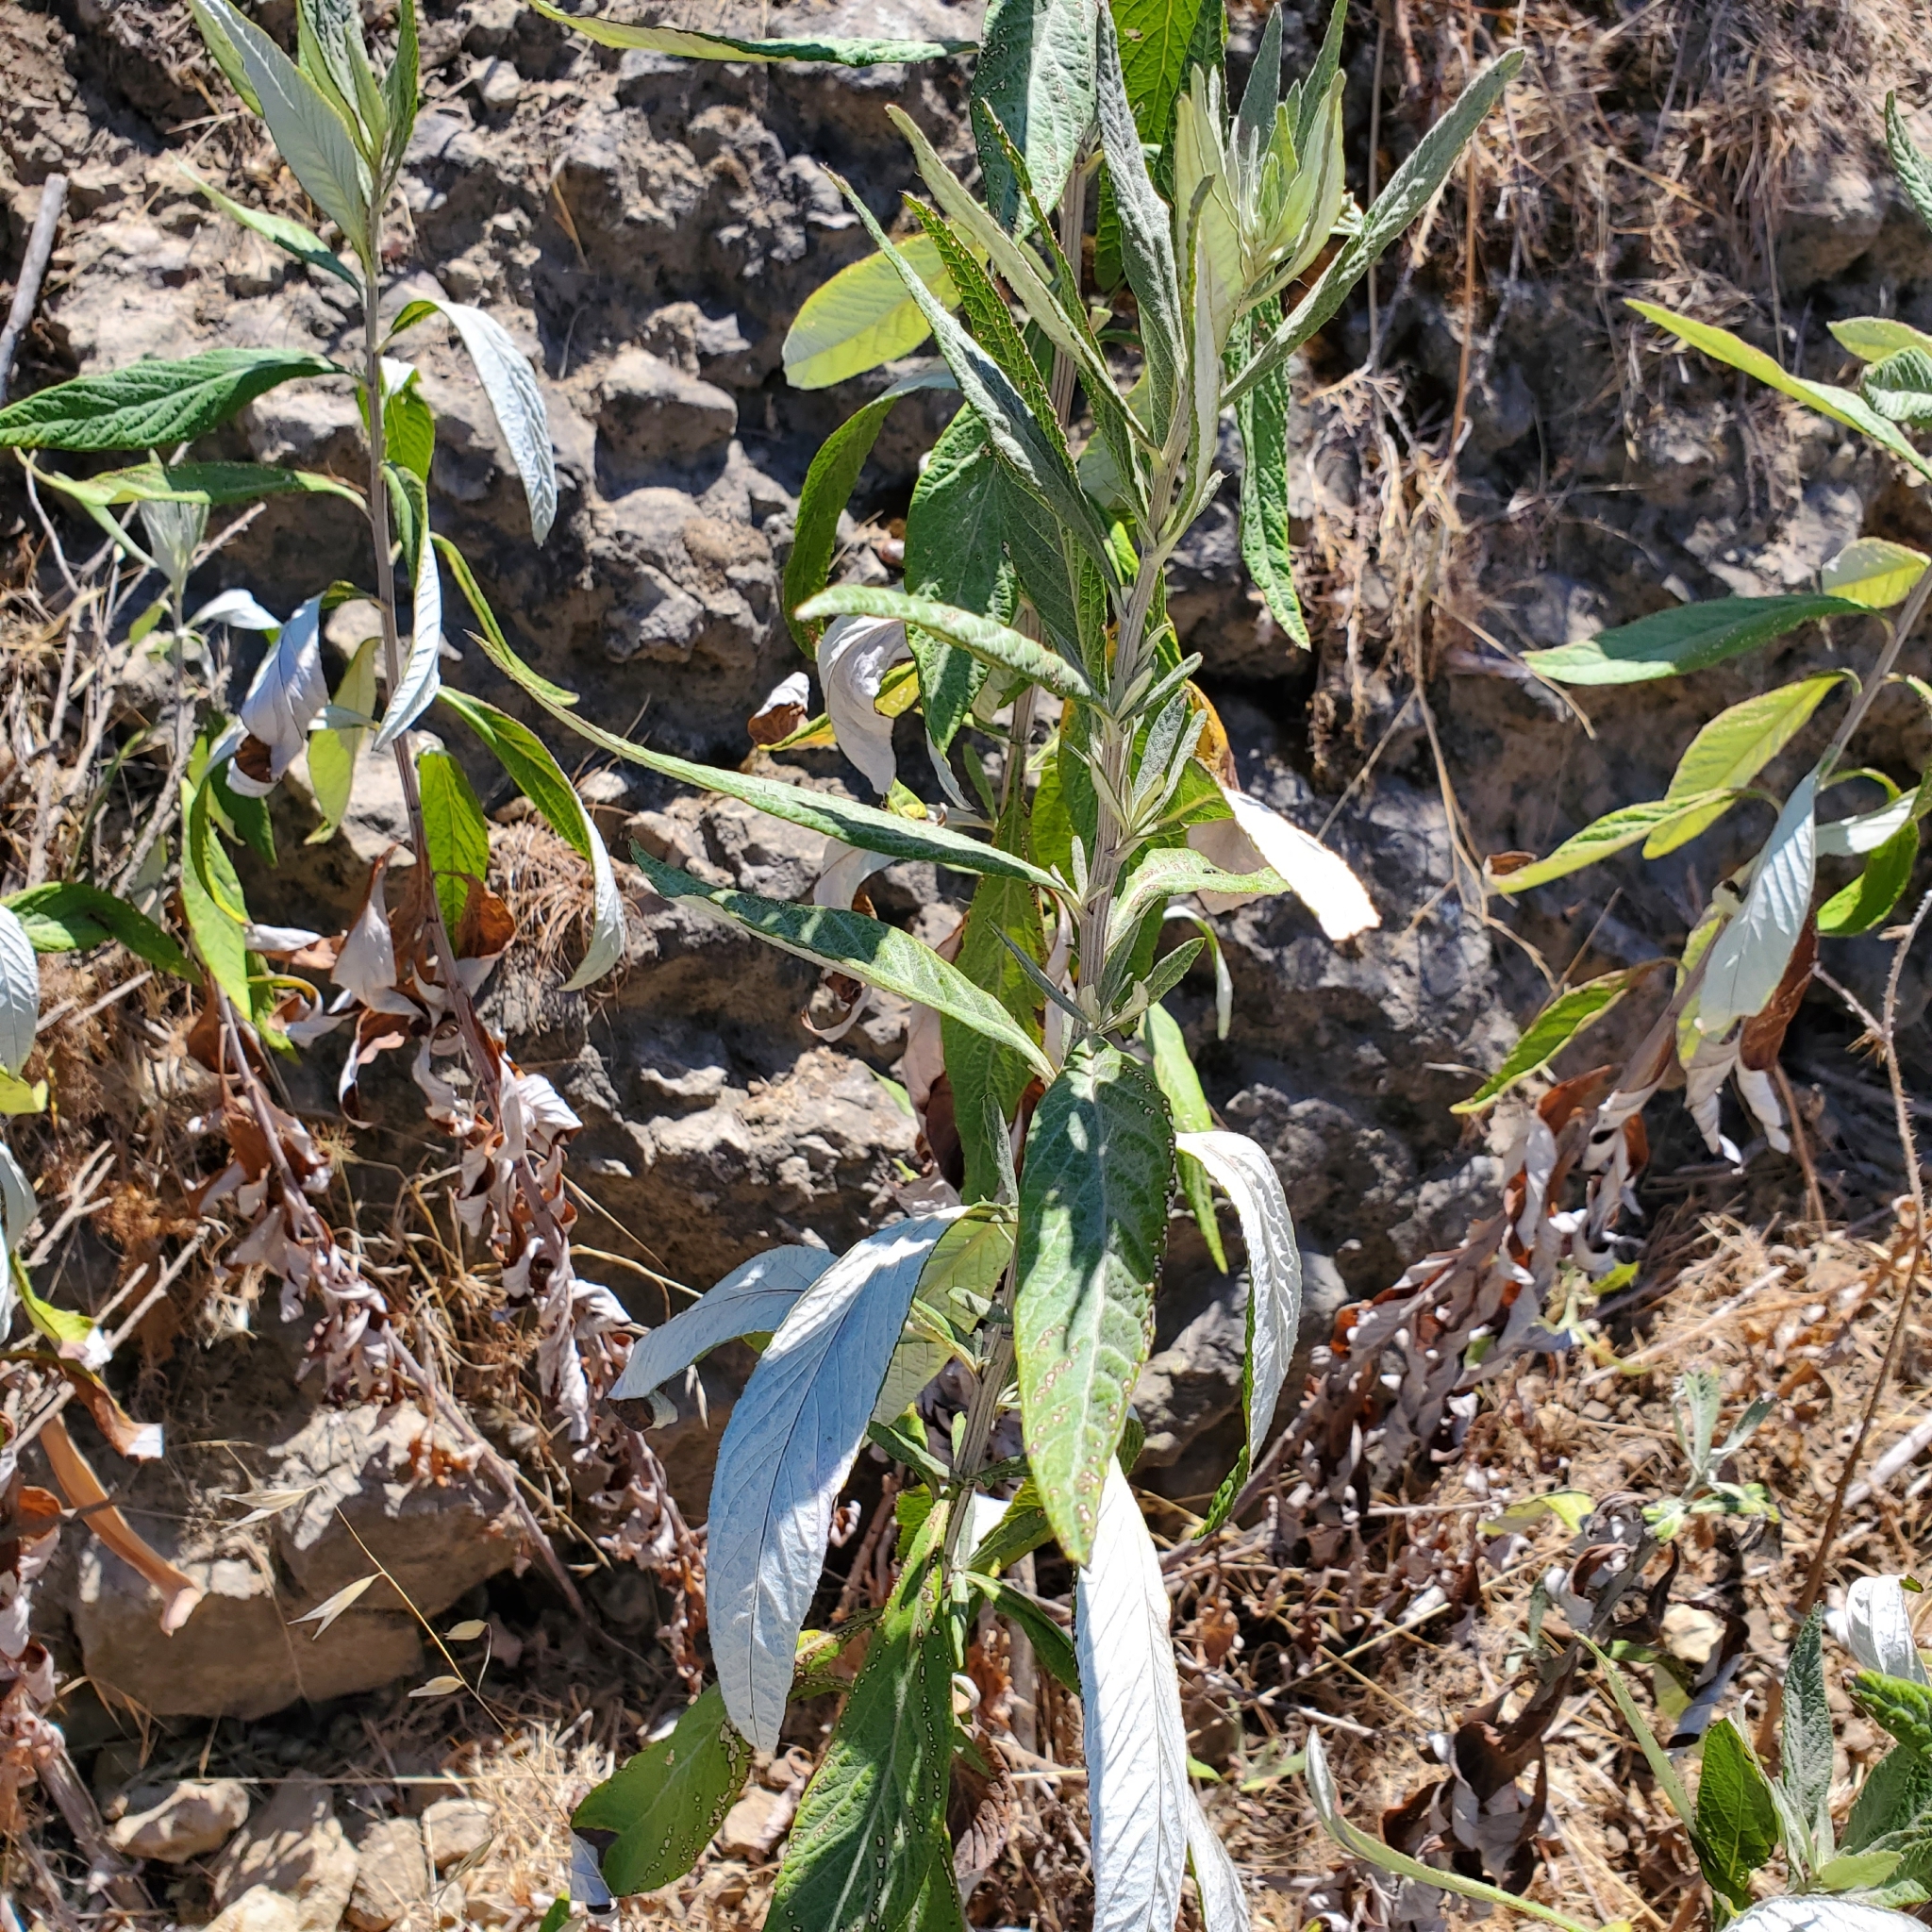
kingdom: Plantae
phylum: Tracheophyta
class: Magnoliopsida
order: Asterales
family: Asteraceae
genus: Artemisia
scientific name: Artemisia douglasiana
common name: Northwest mugwort
